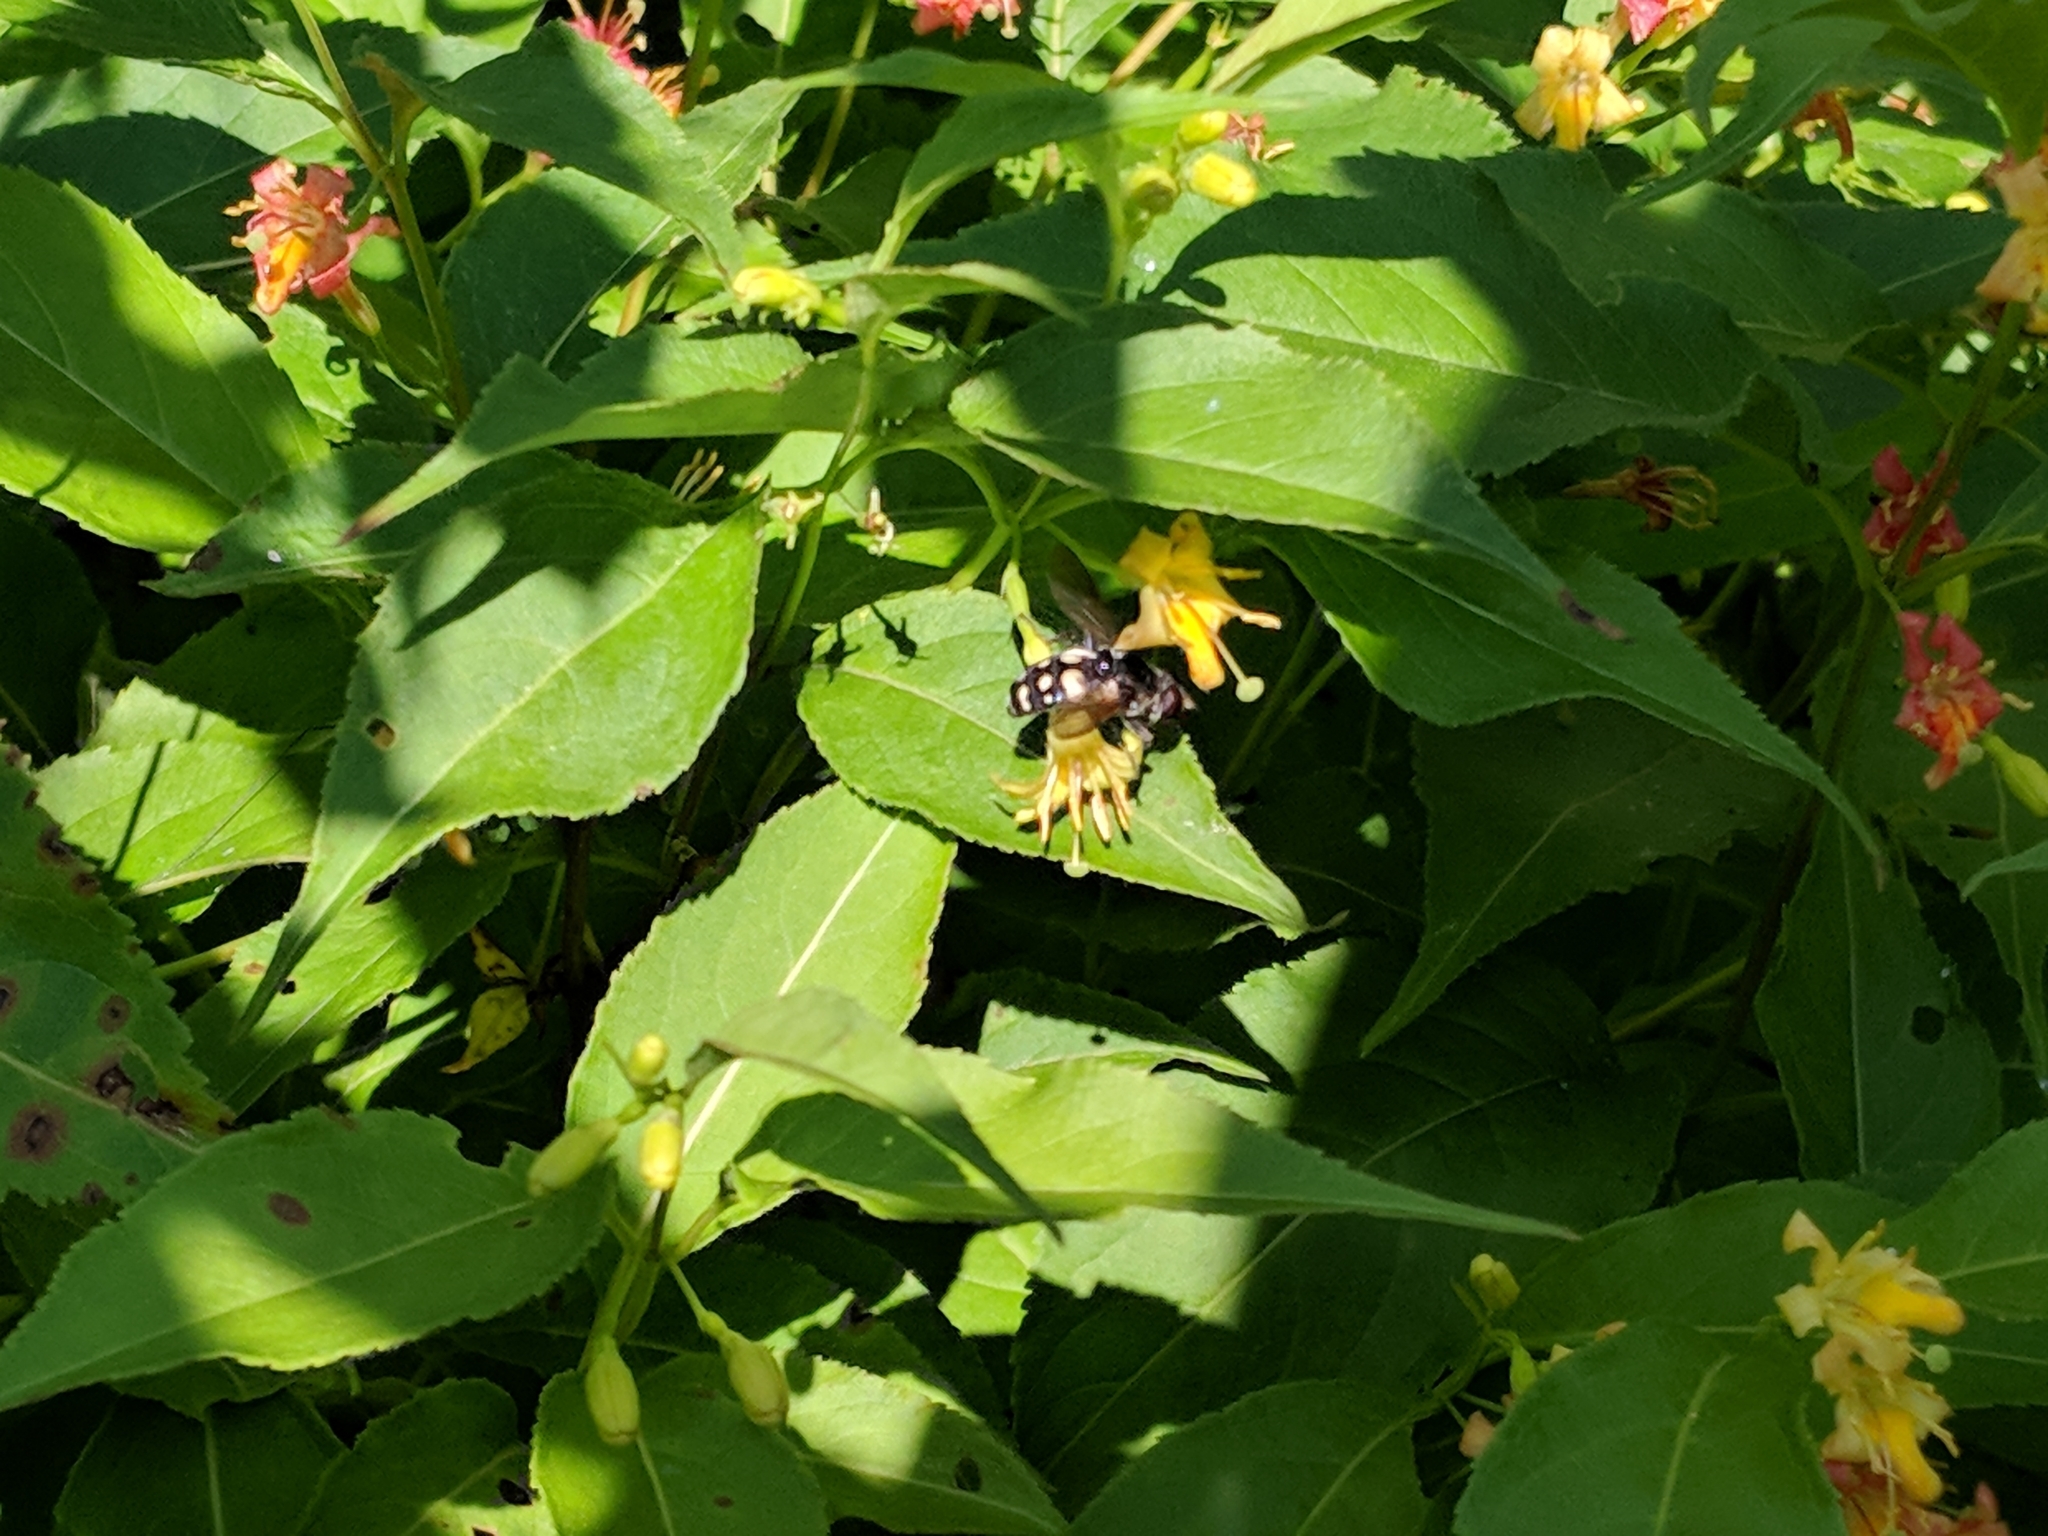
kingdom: Animalia
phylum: Arthropoda
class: Insecta
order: Diptera
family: Syrphidae
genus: Sericomyia
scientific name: Sericomyia lata
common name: White-spotted pond fly
